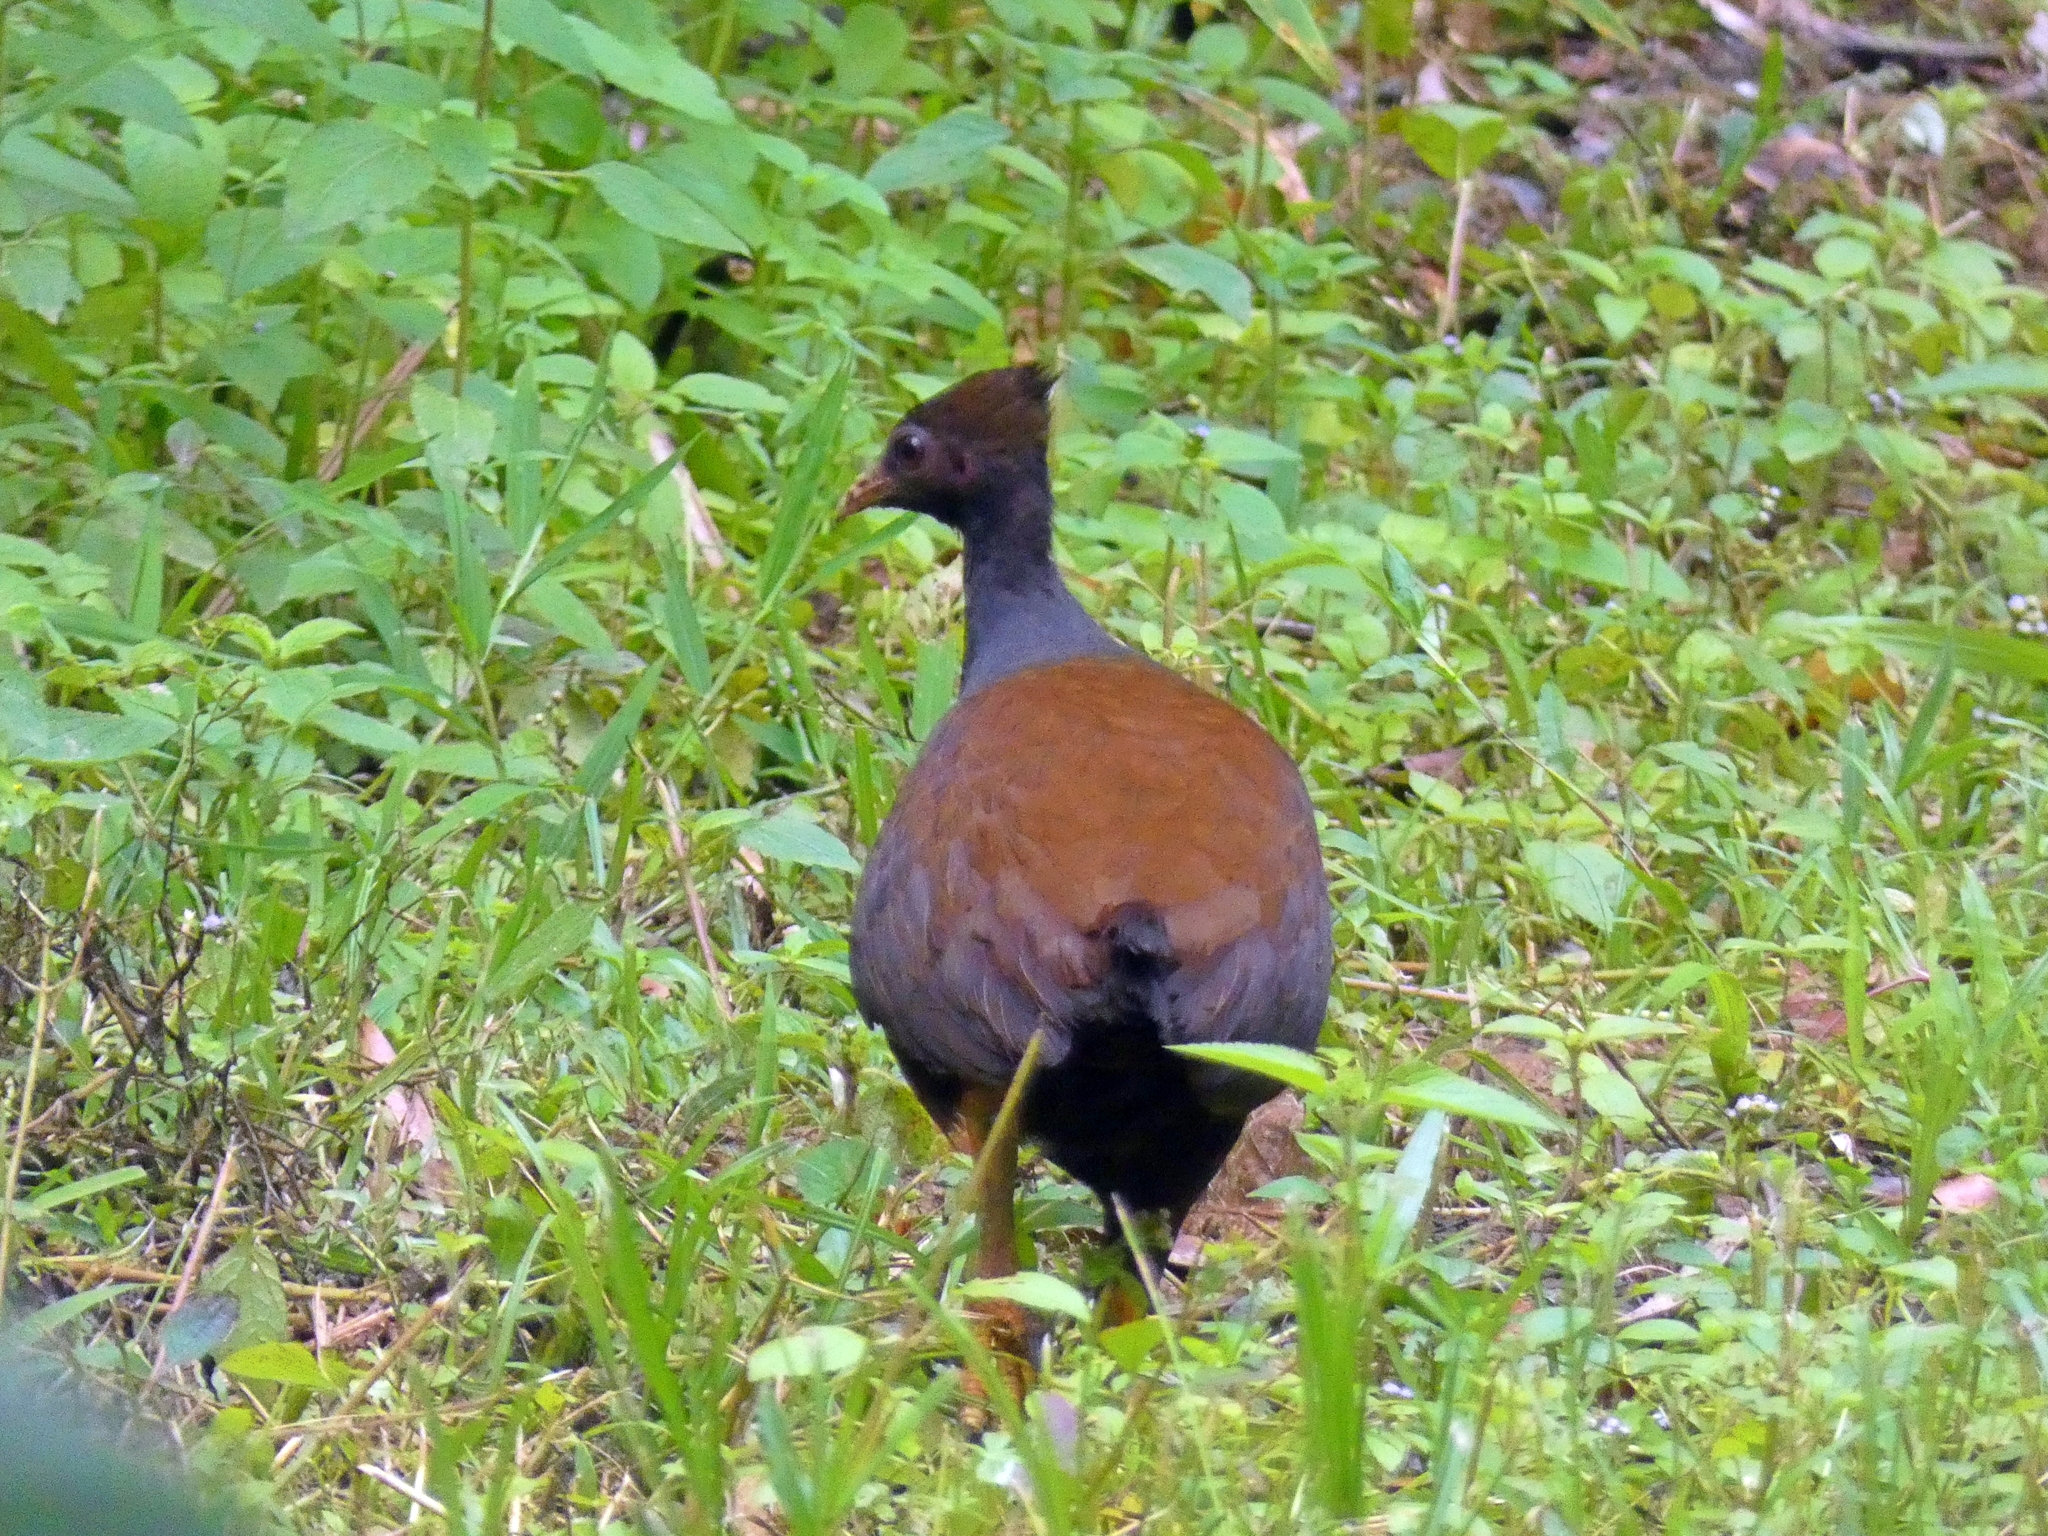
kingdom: Animalia
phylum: Chordata
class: Aves
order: Galliformes
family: Megapodiidae
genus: Megapodius
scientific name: Megapodius reinwardt
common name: Orange-footed scrubfowl
